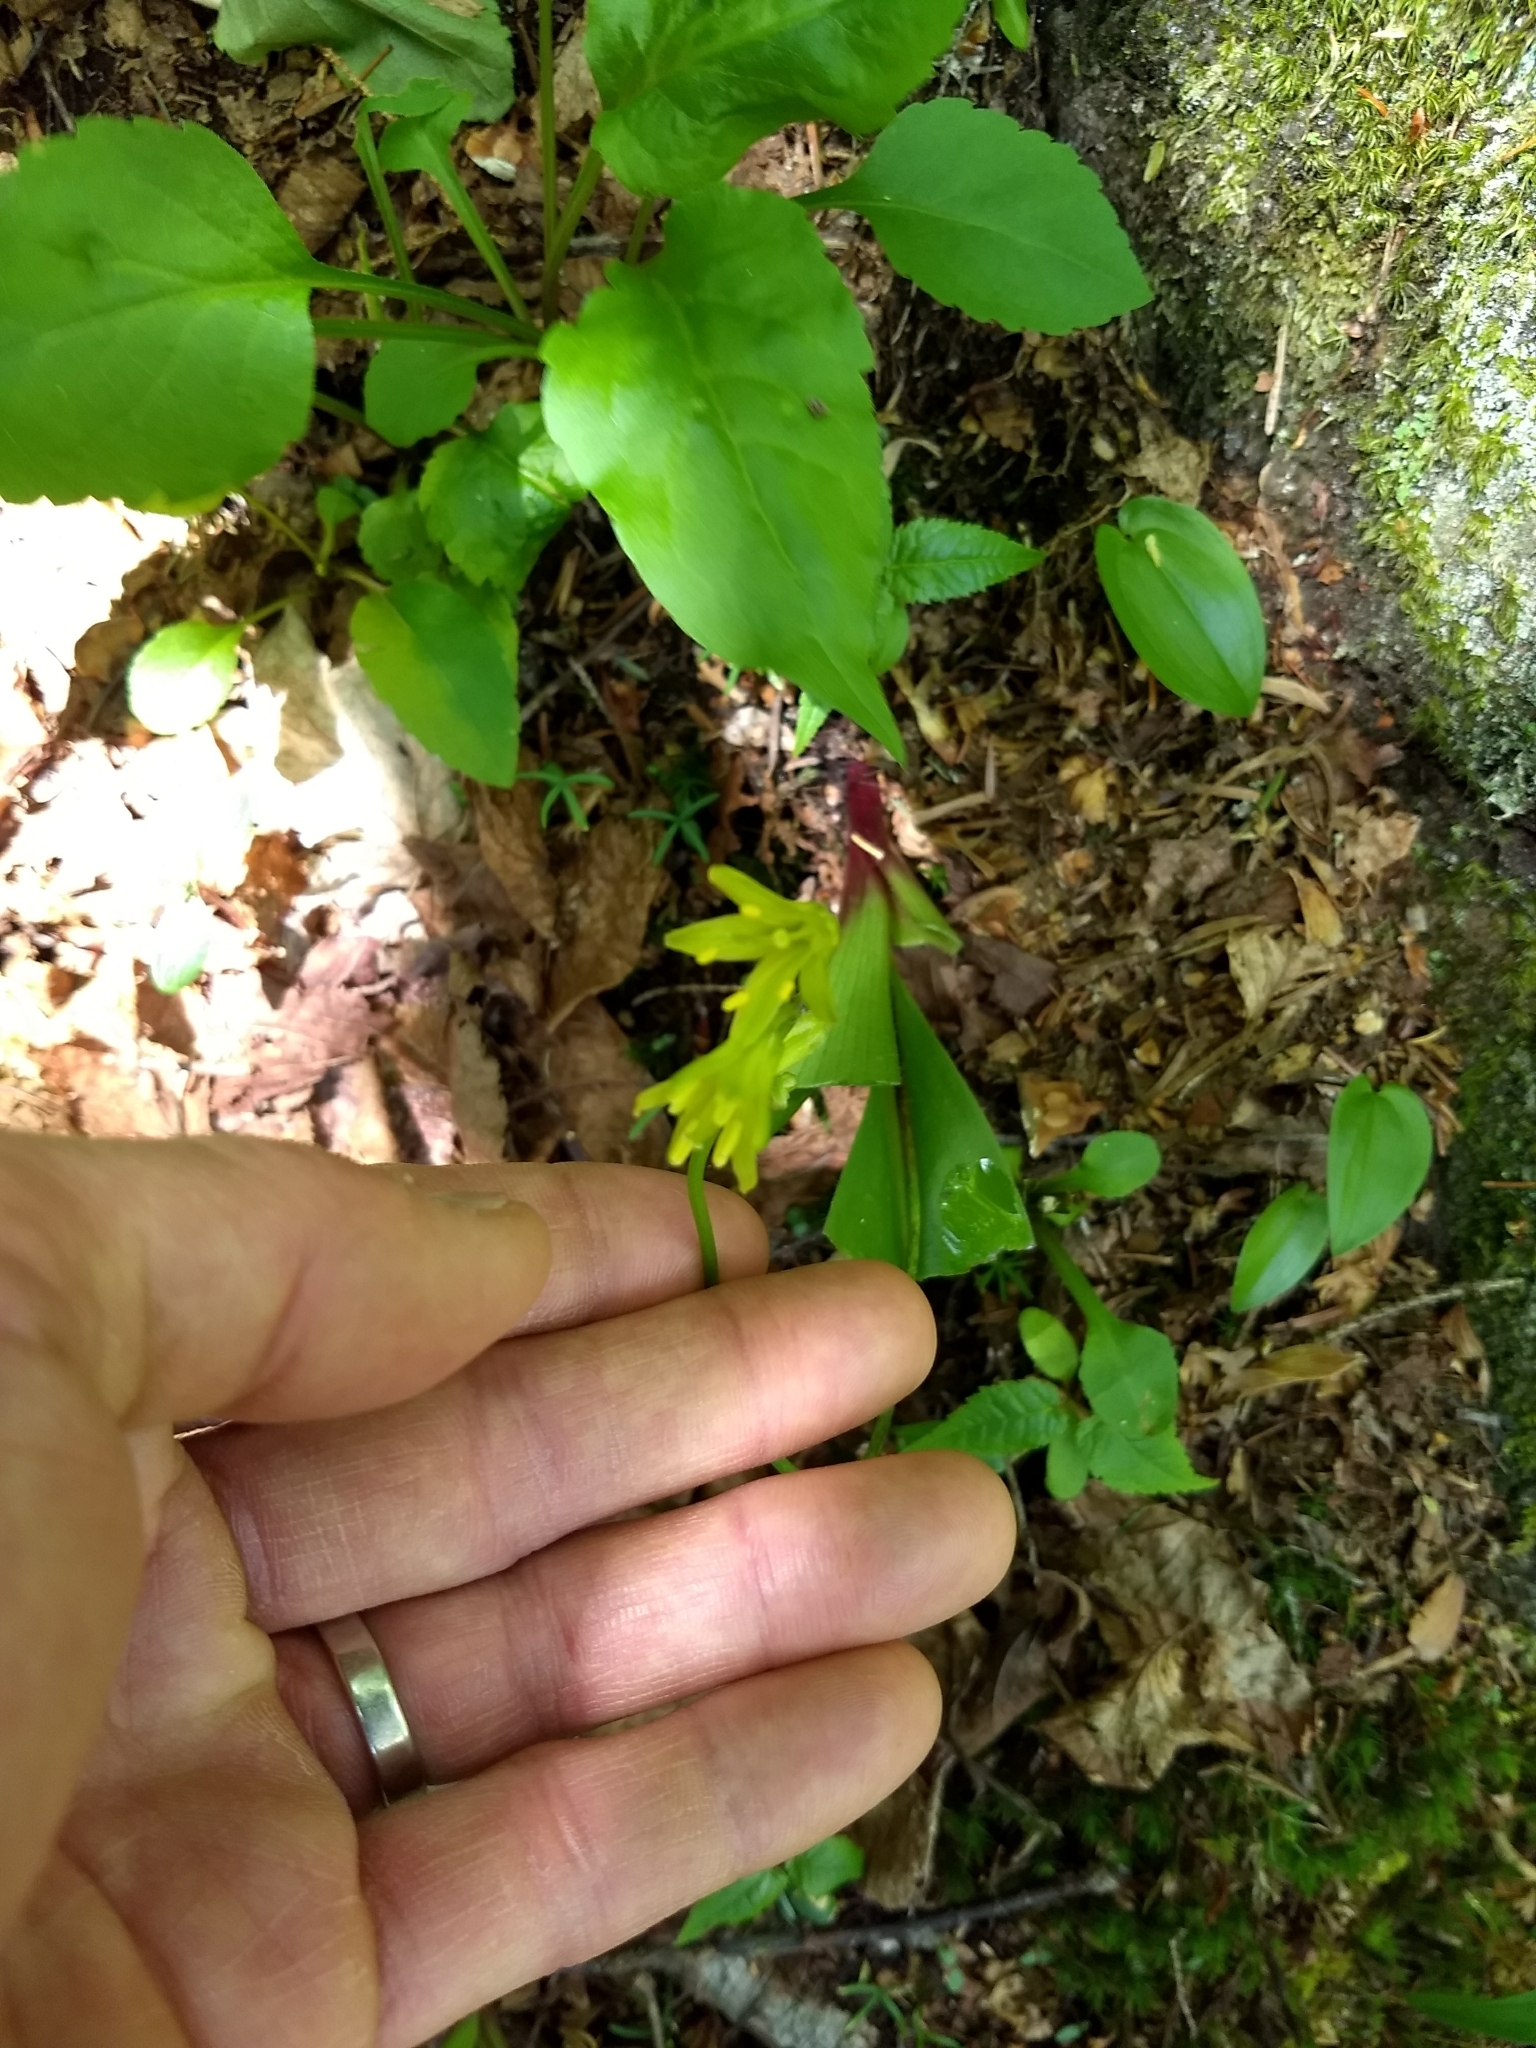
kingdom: Plantae
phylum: Tracheophyta
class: Liliopsida
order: Liliales
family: Liliaceae
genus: Clintonia
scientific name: Clintonia borealis
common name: Yellow clintonia
